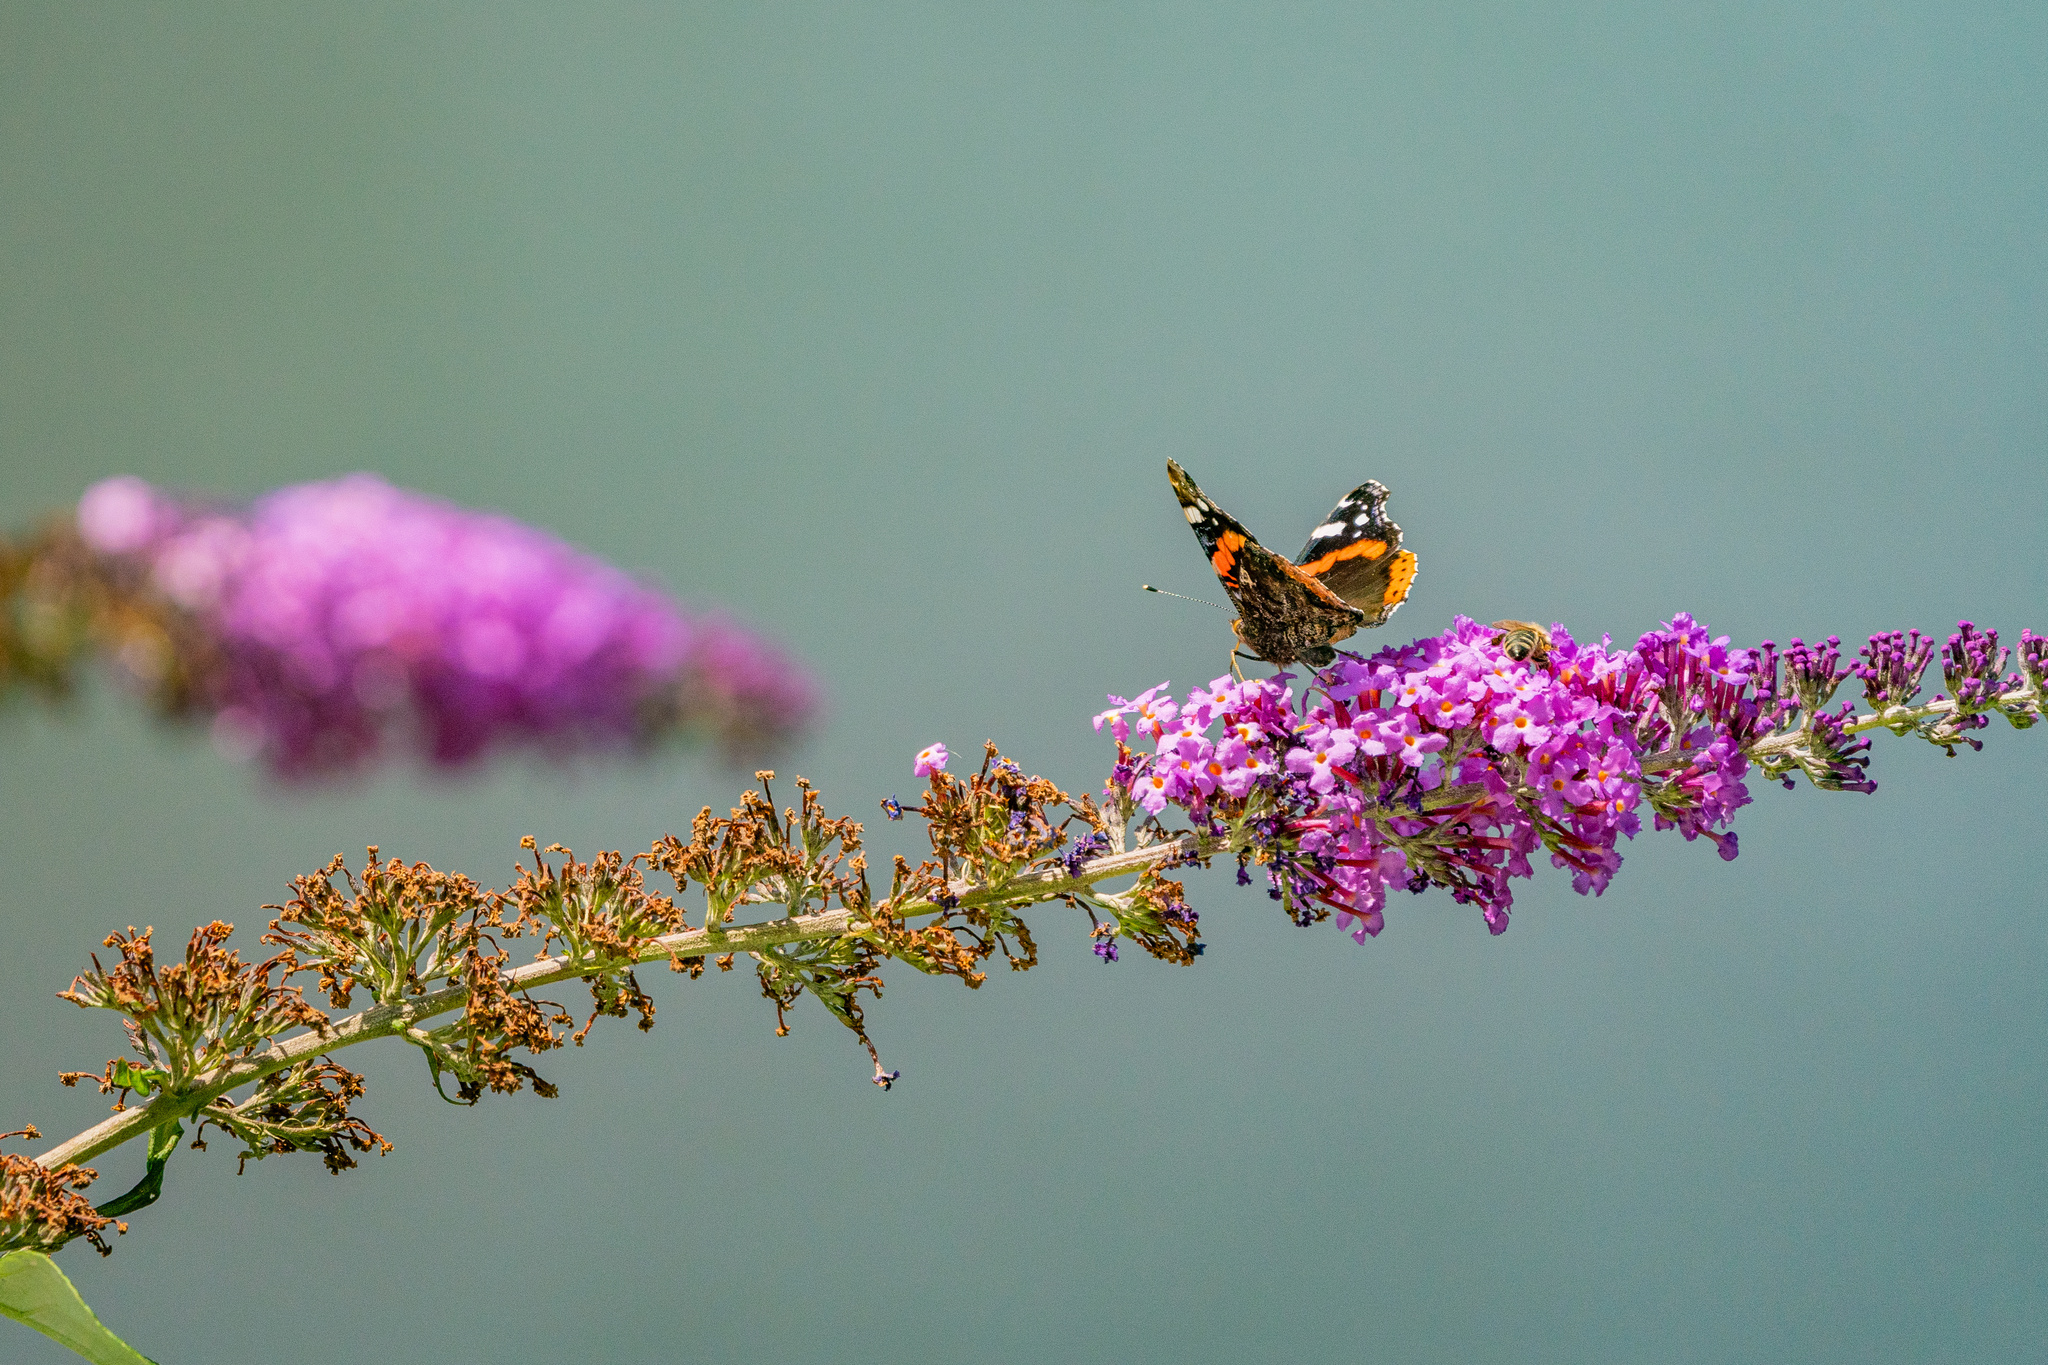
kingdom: Animalia
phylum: Arthropoda
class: Insecta
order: Lepidoptera
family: Nymphalidae
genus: Vanessa
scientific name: Vanessa atalanta
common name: Red admiral
